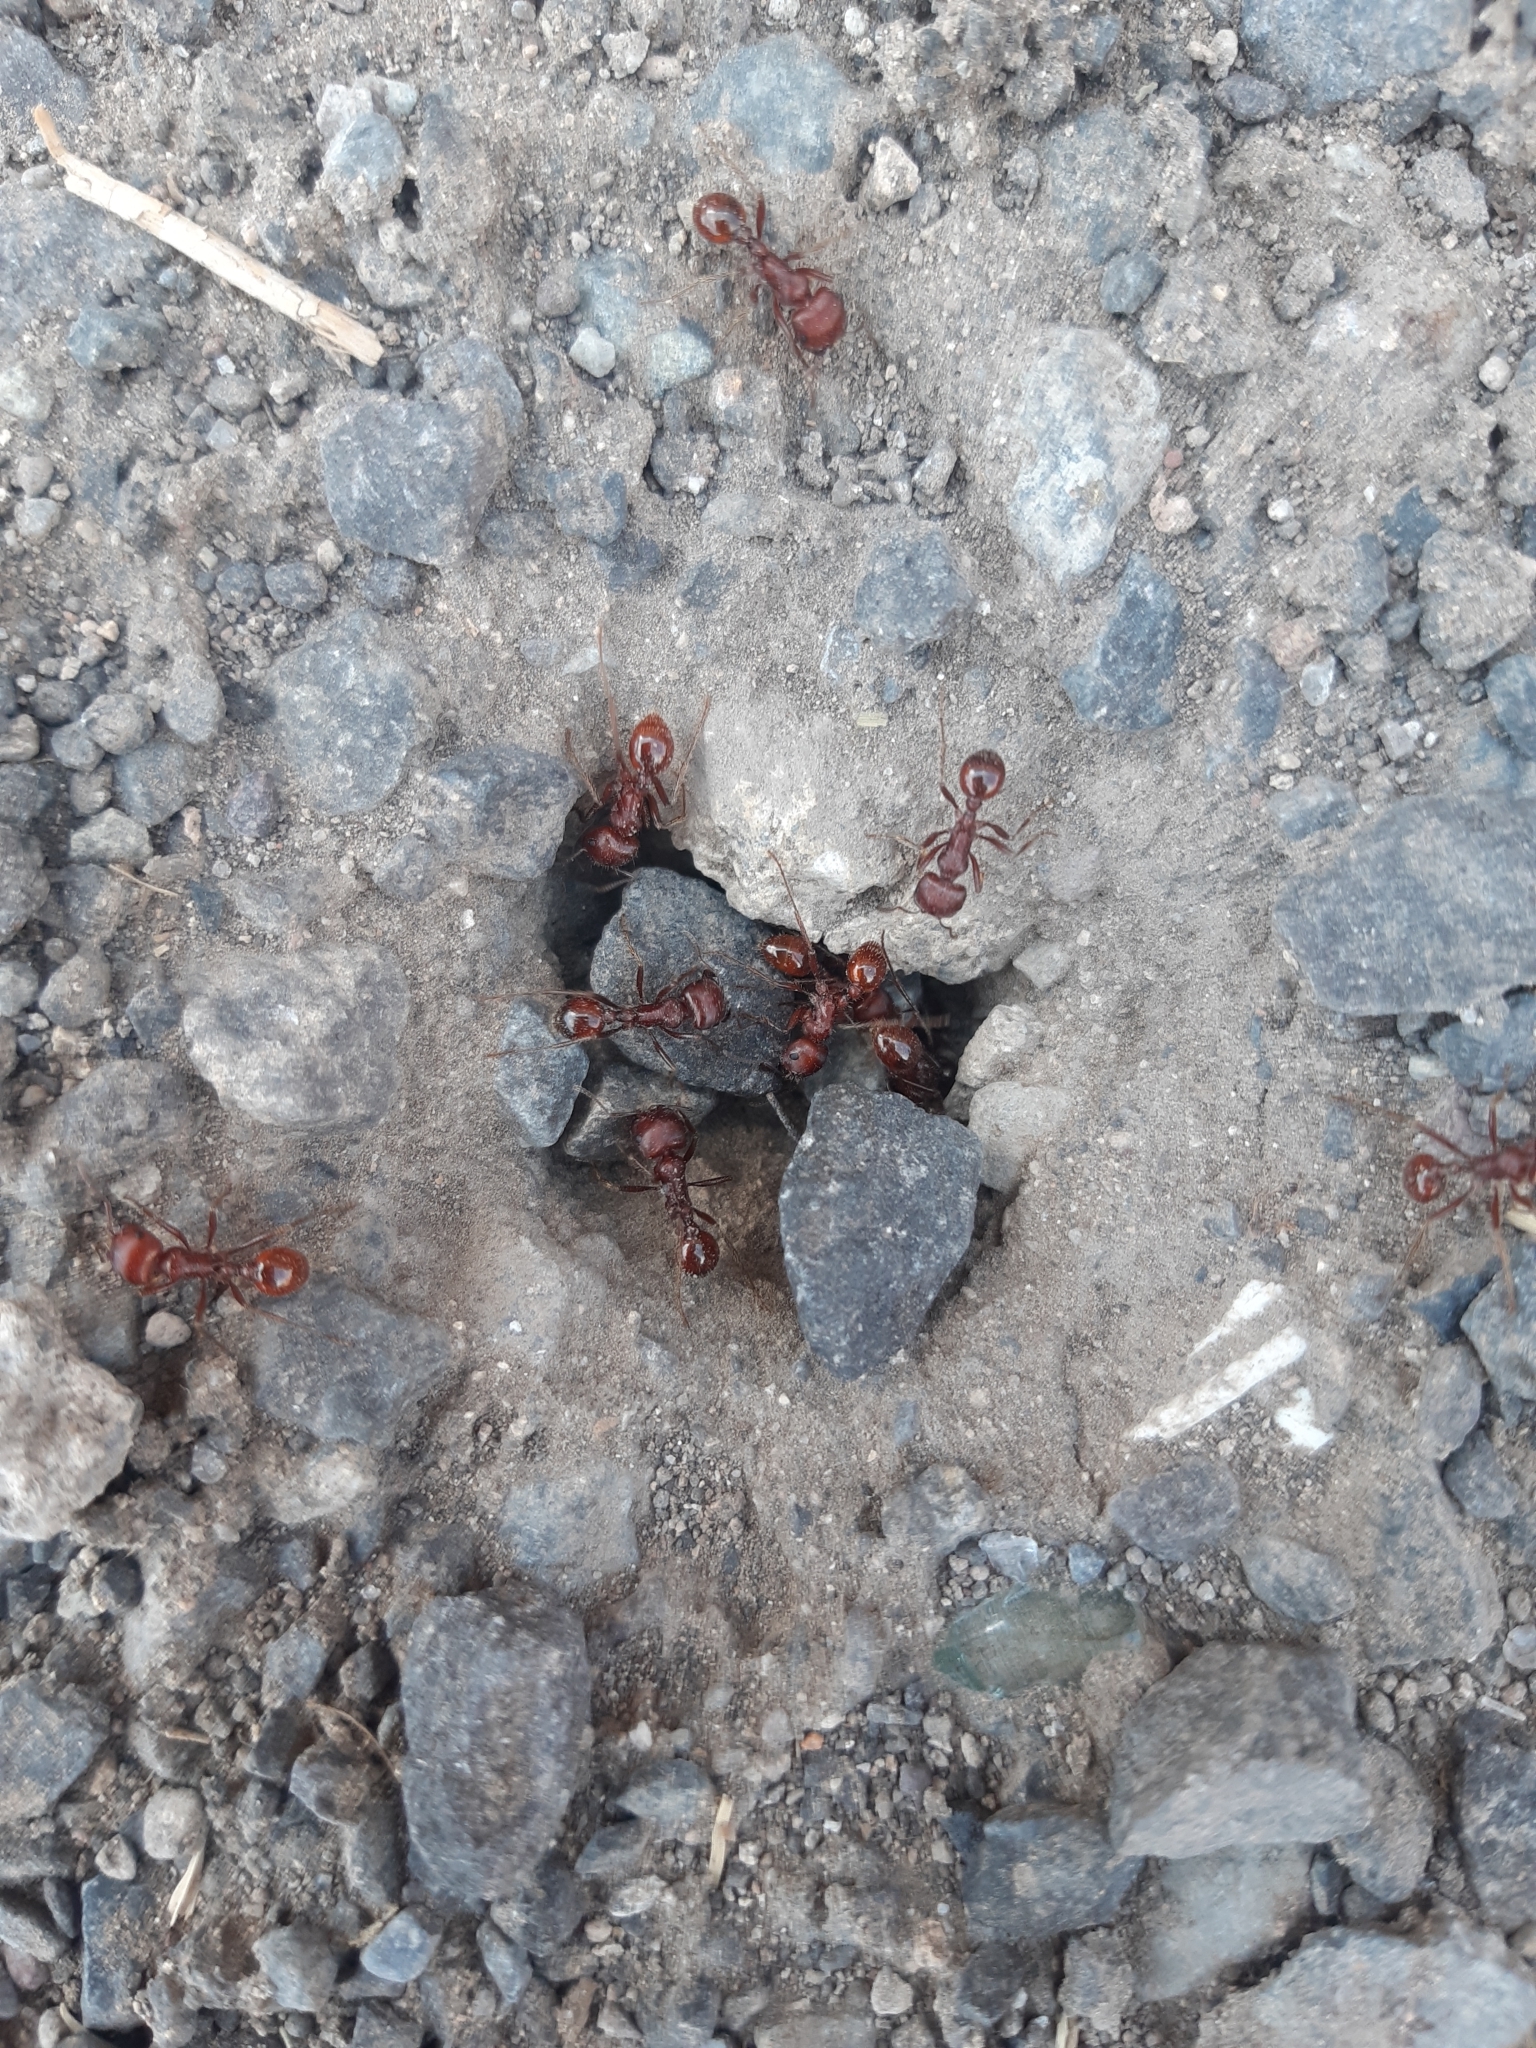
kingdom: Animalia
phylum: Arthropoda
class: Insecta
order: Hymenoptera
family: Formicidae
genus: Pogonomyrmex
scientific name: Pogonomyrmex barbatus
